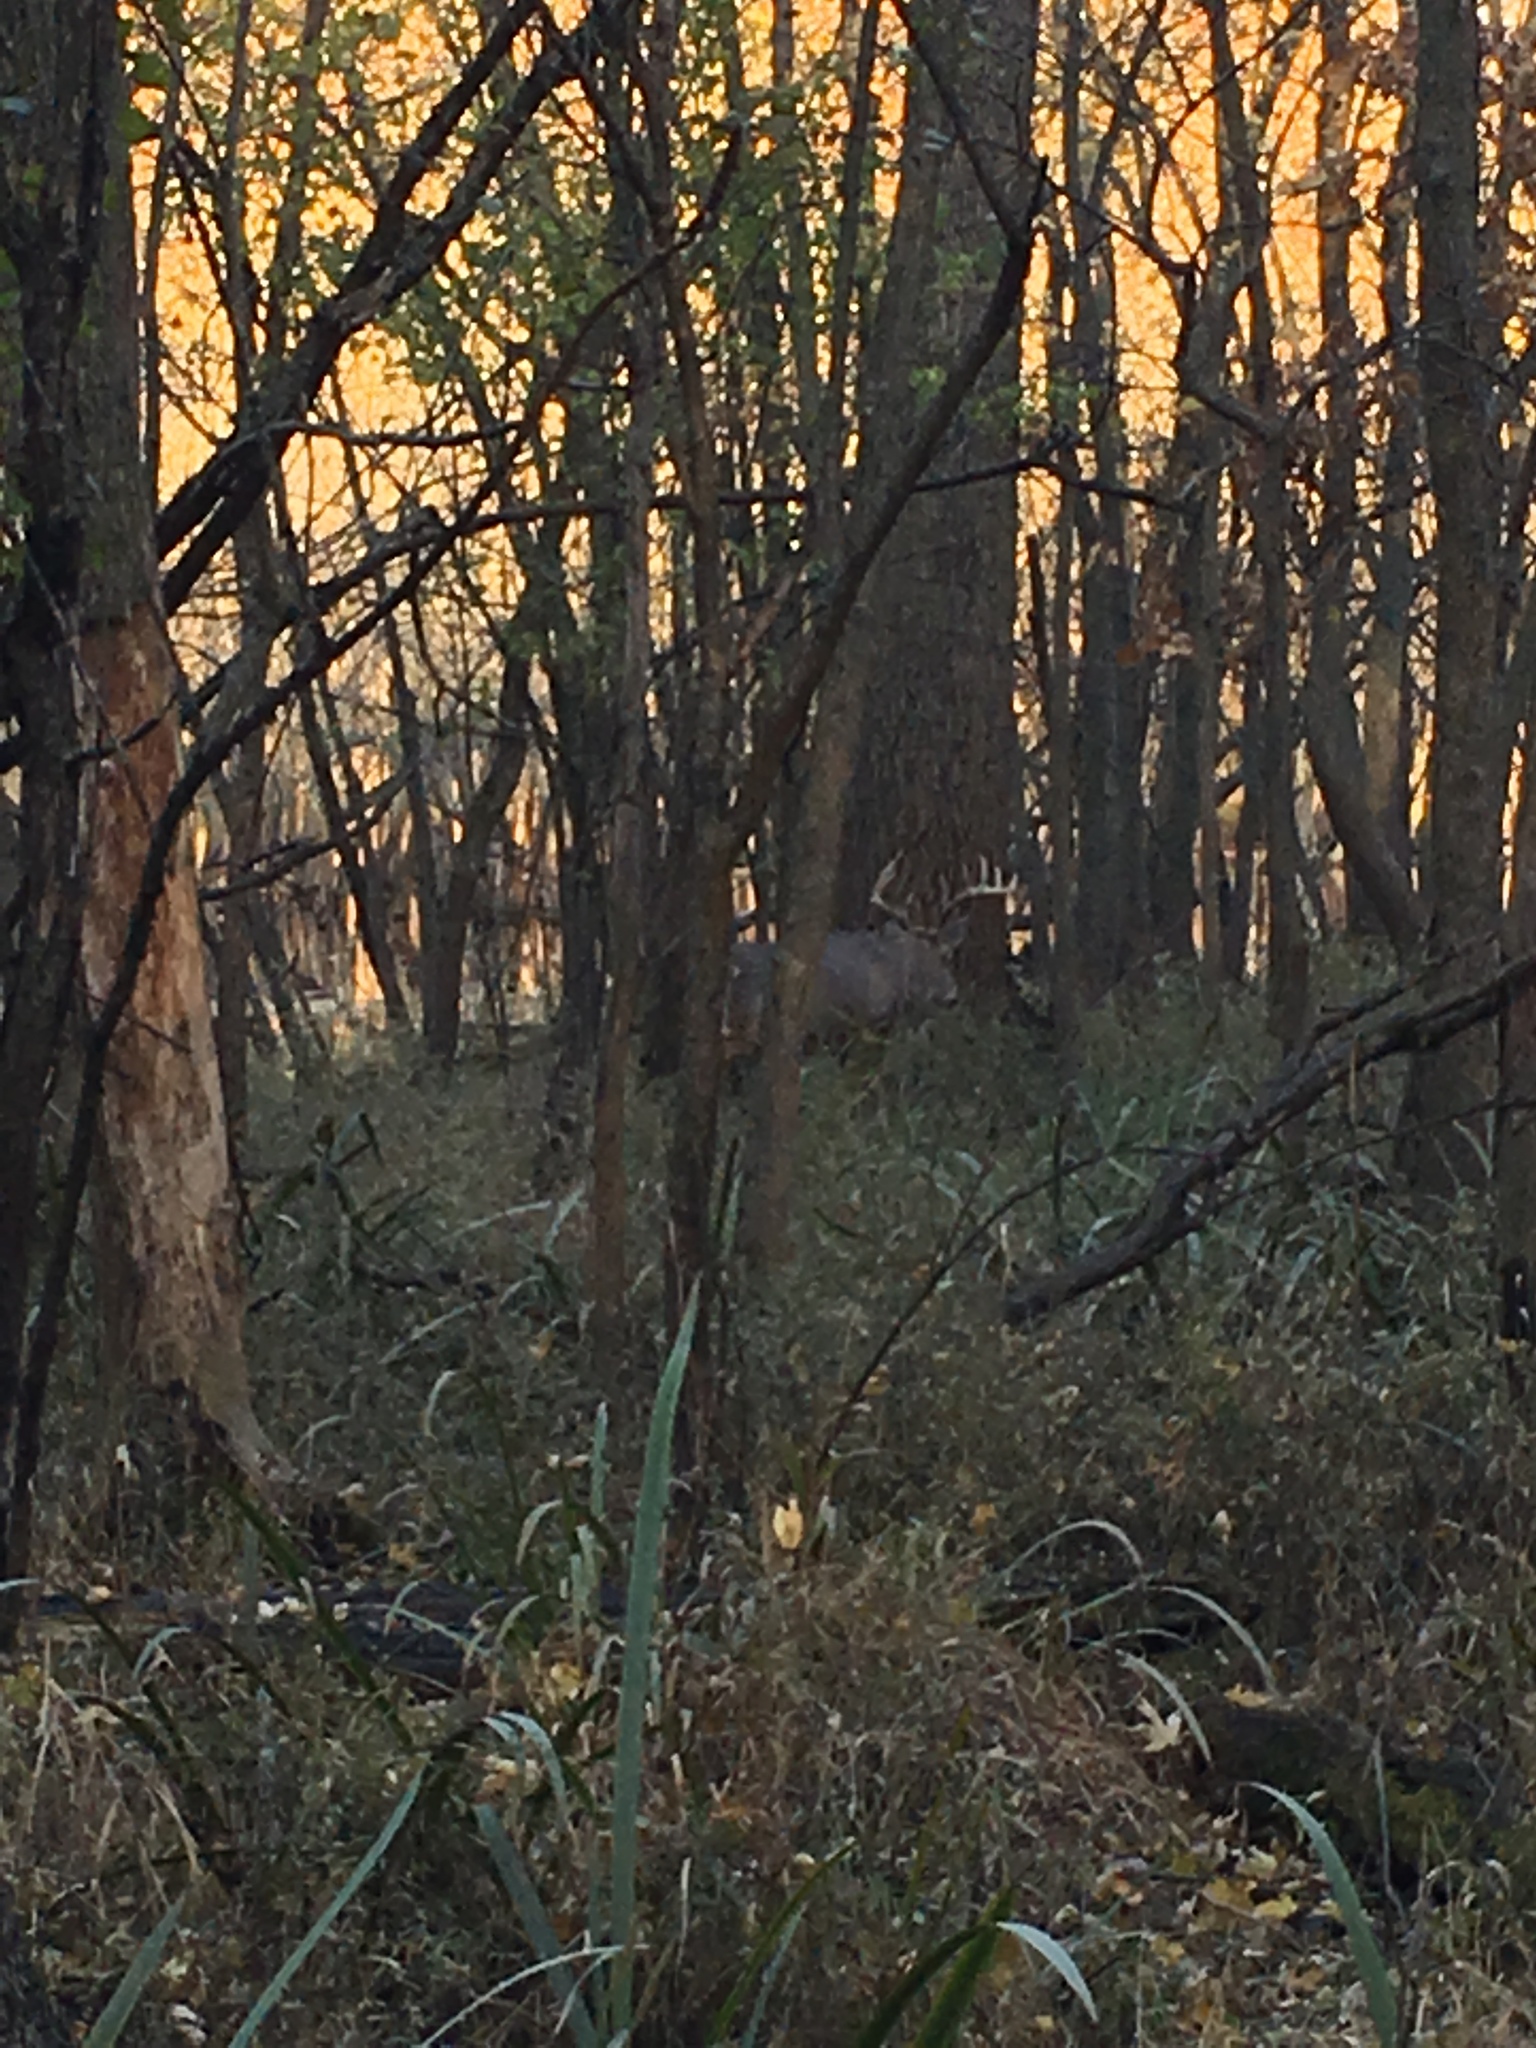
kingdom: Animalia
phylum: Chordata
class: Mammalia
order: Artiodactyla
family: Cervidae
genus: Odocoileus
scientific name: Odocoileus virginianus
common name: White-tailed deer
